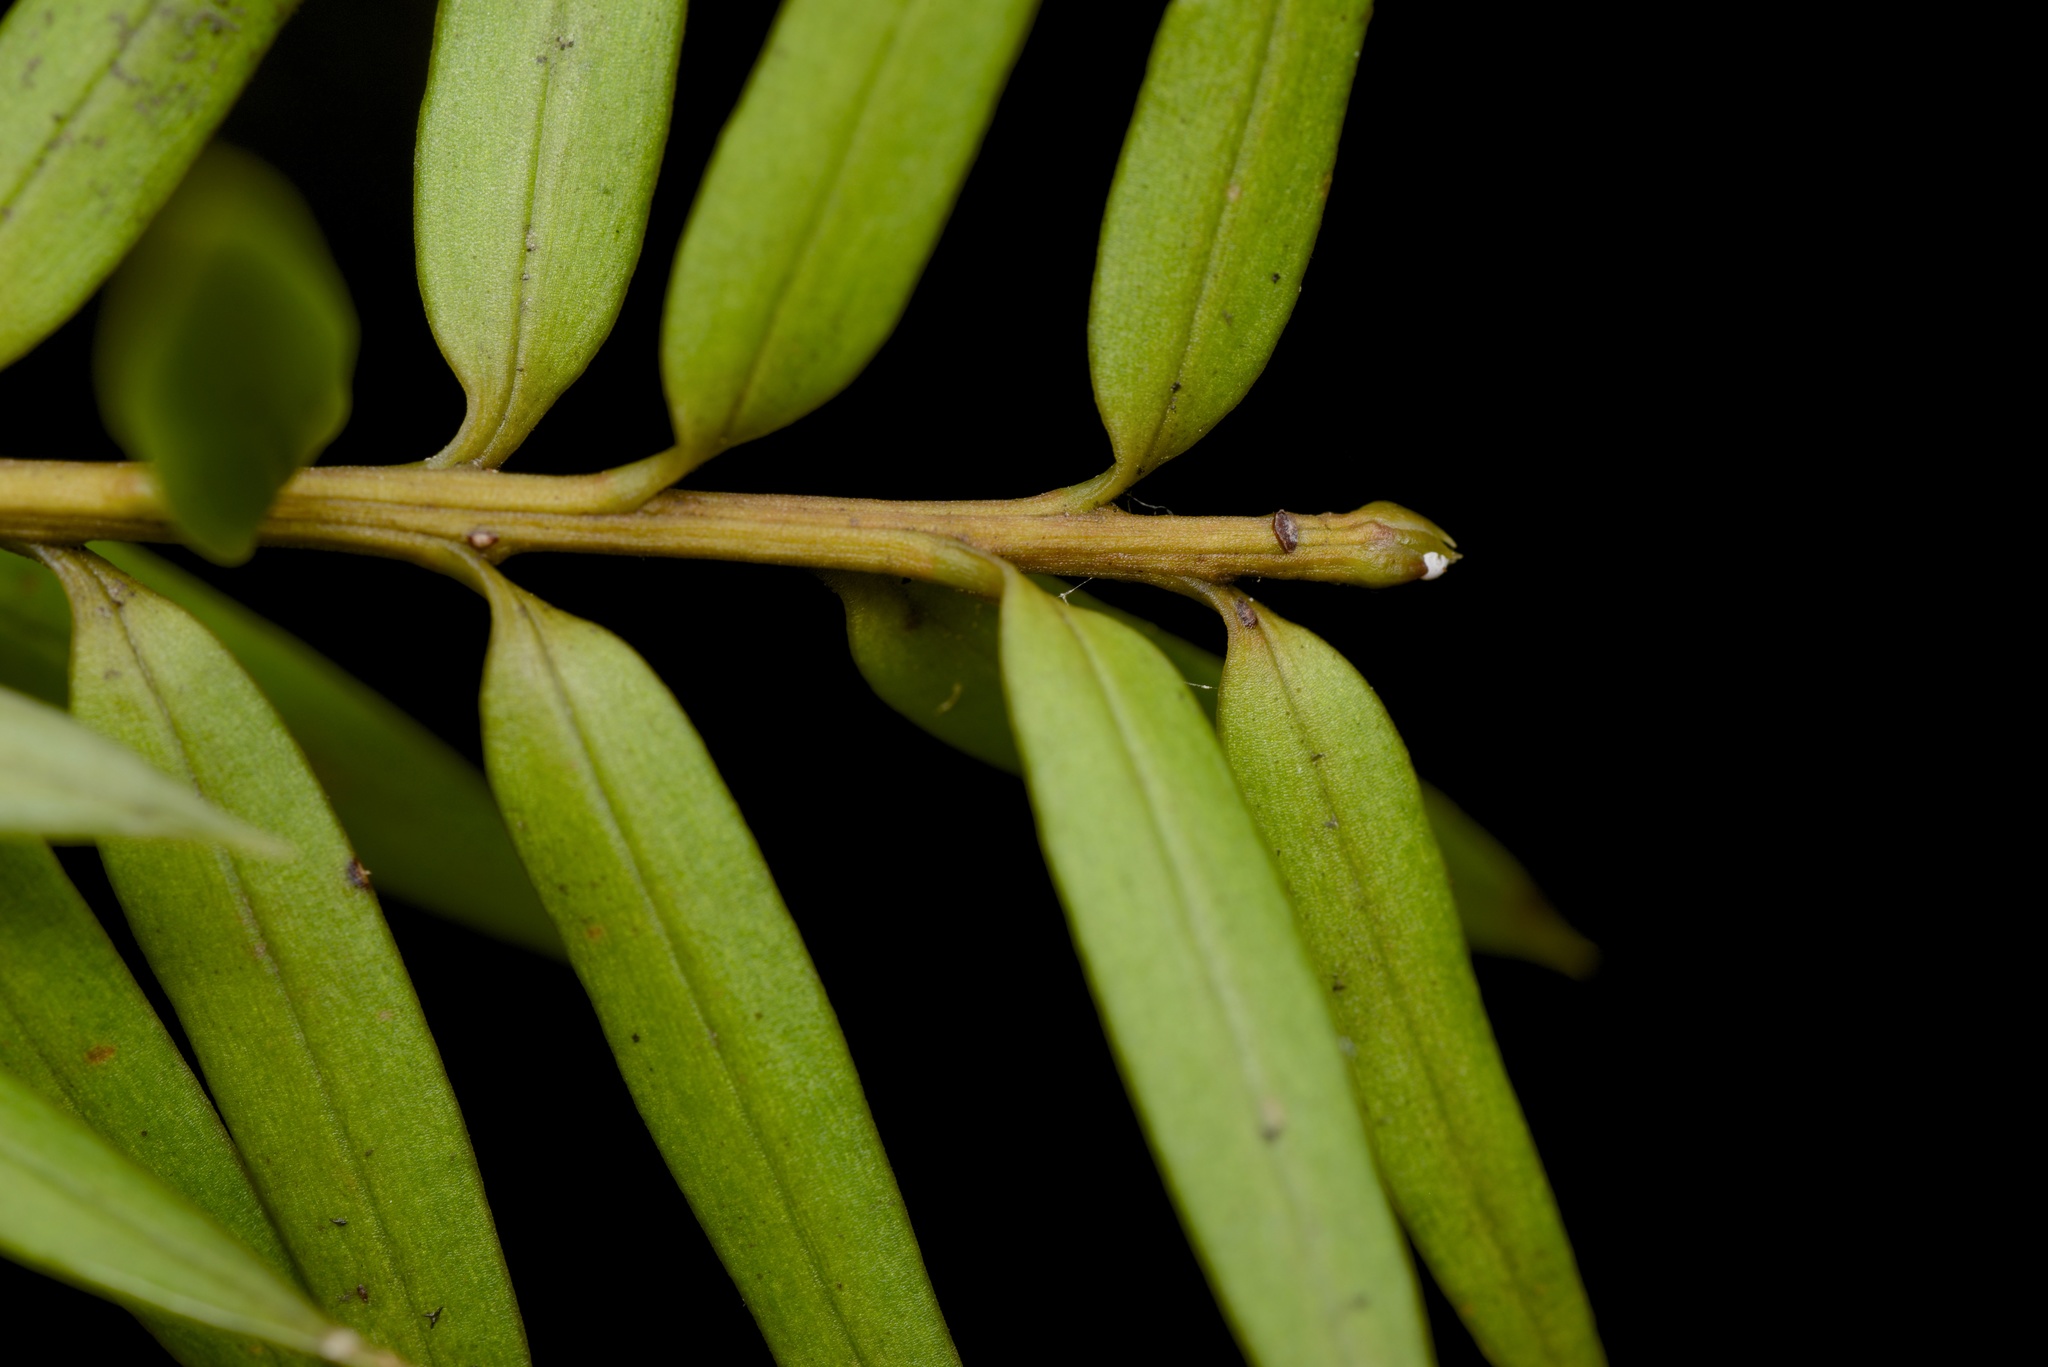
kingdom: Plantae
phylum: Tracheophyta
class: Pinopsida
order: Pinales
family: Podocarpaceae
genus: Podocarpus
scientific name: Podocarpus totara
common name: Totara
